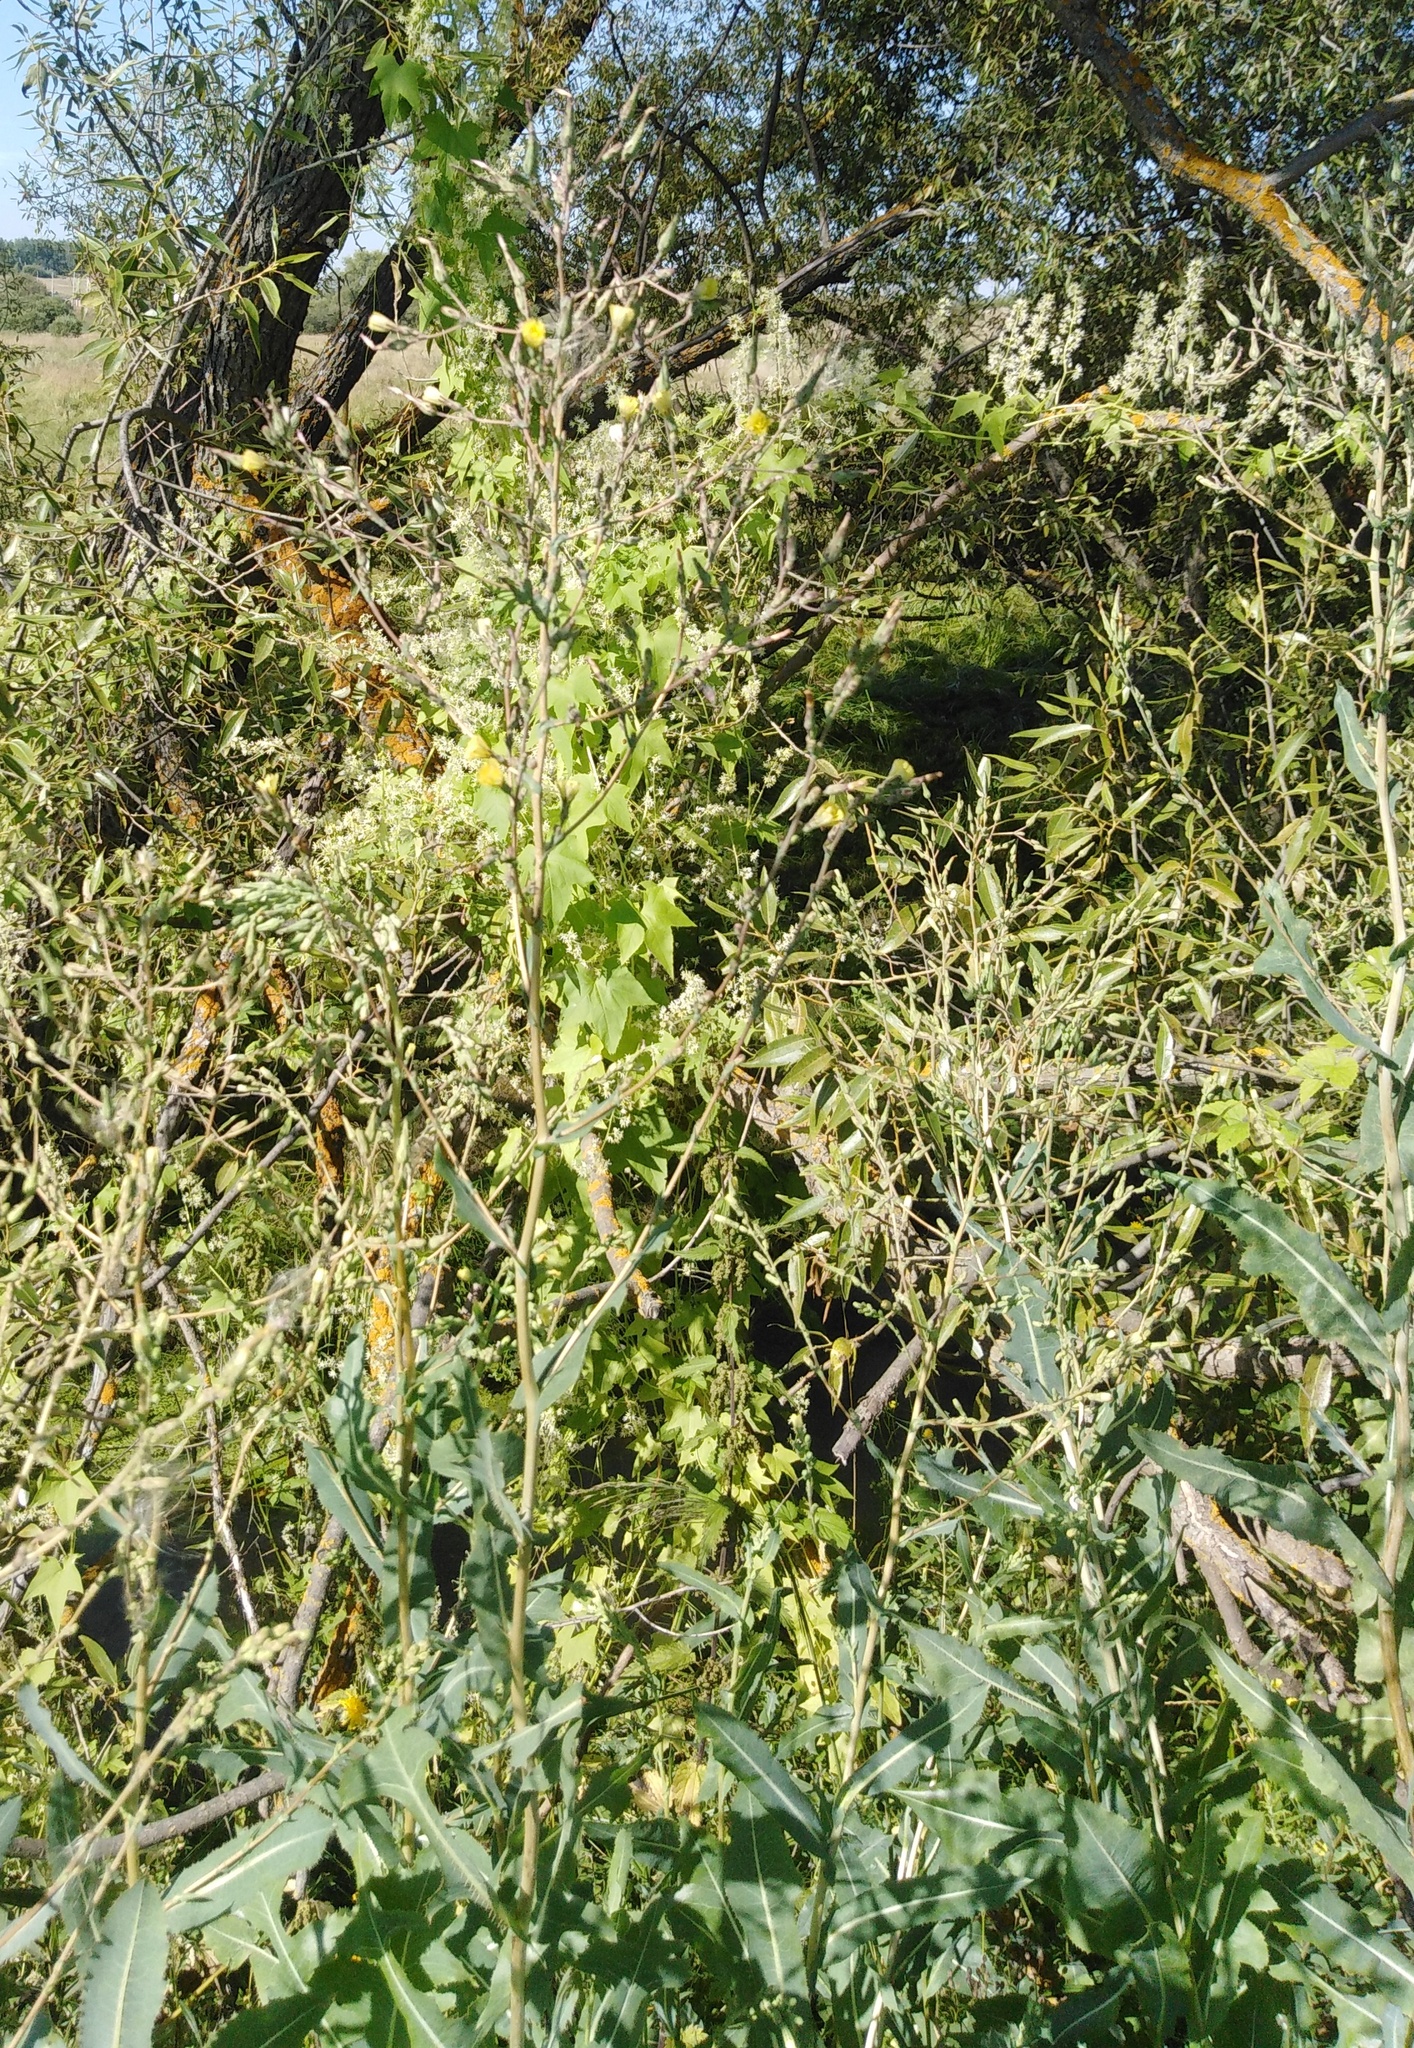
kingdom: Plantae
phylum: Tracheophyta
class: Magnoliopsida
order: Asterales
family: Asteraceae
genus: Lactuca
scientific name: Lactuca serriola
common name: Prickly lettuce
